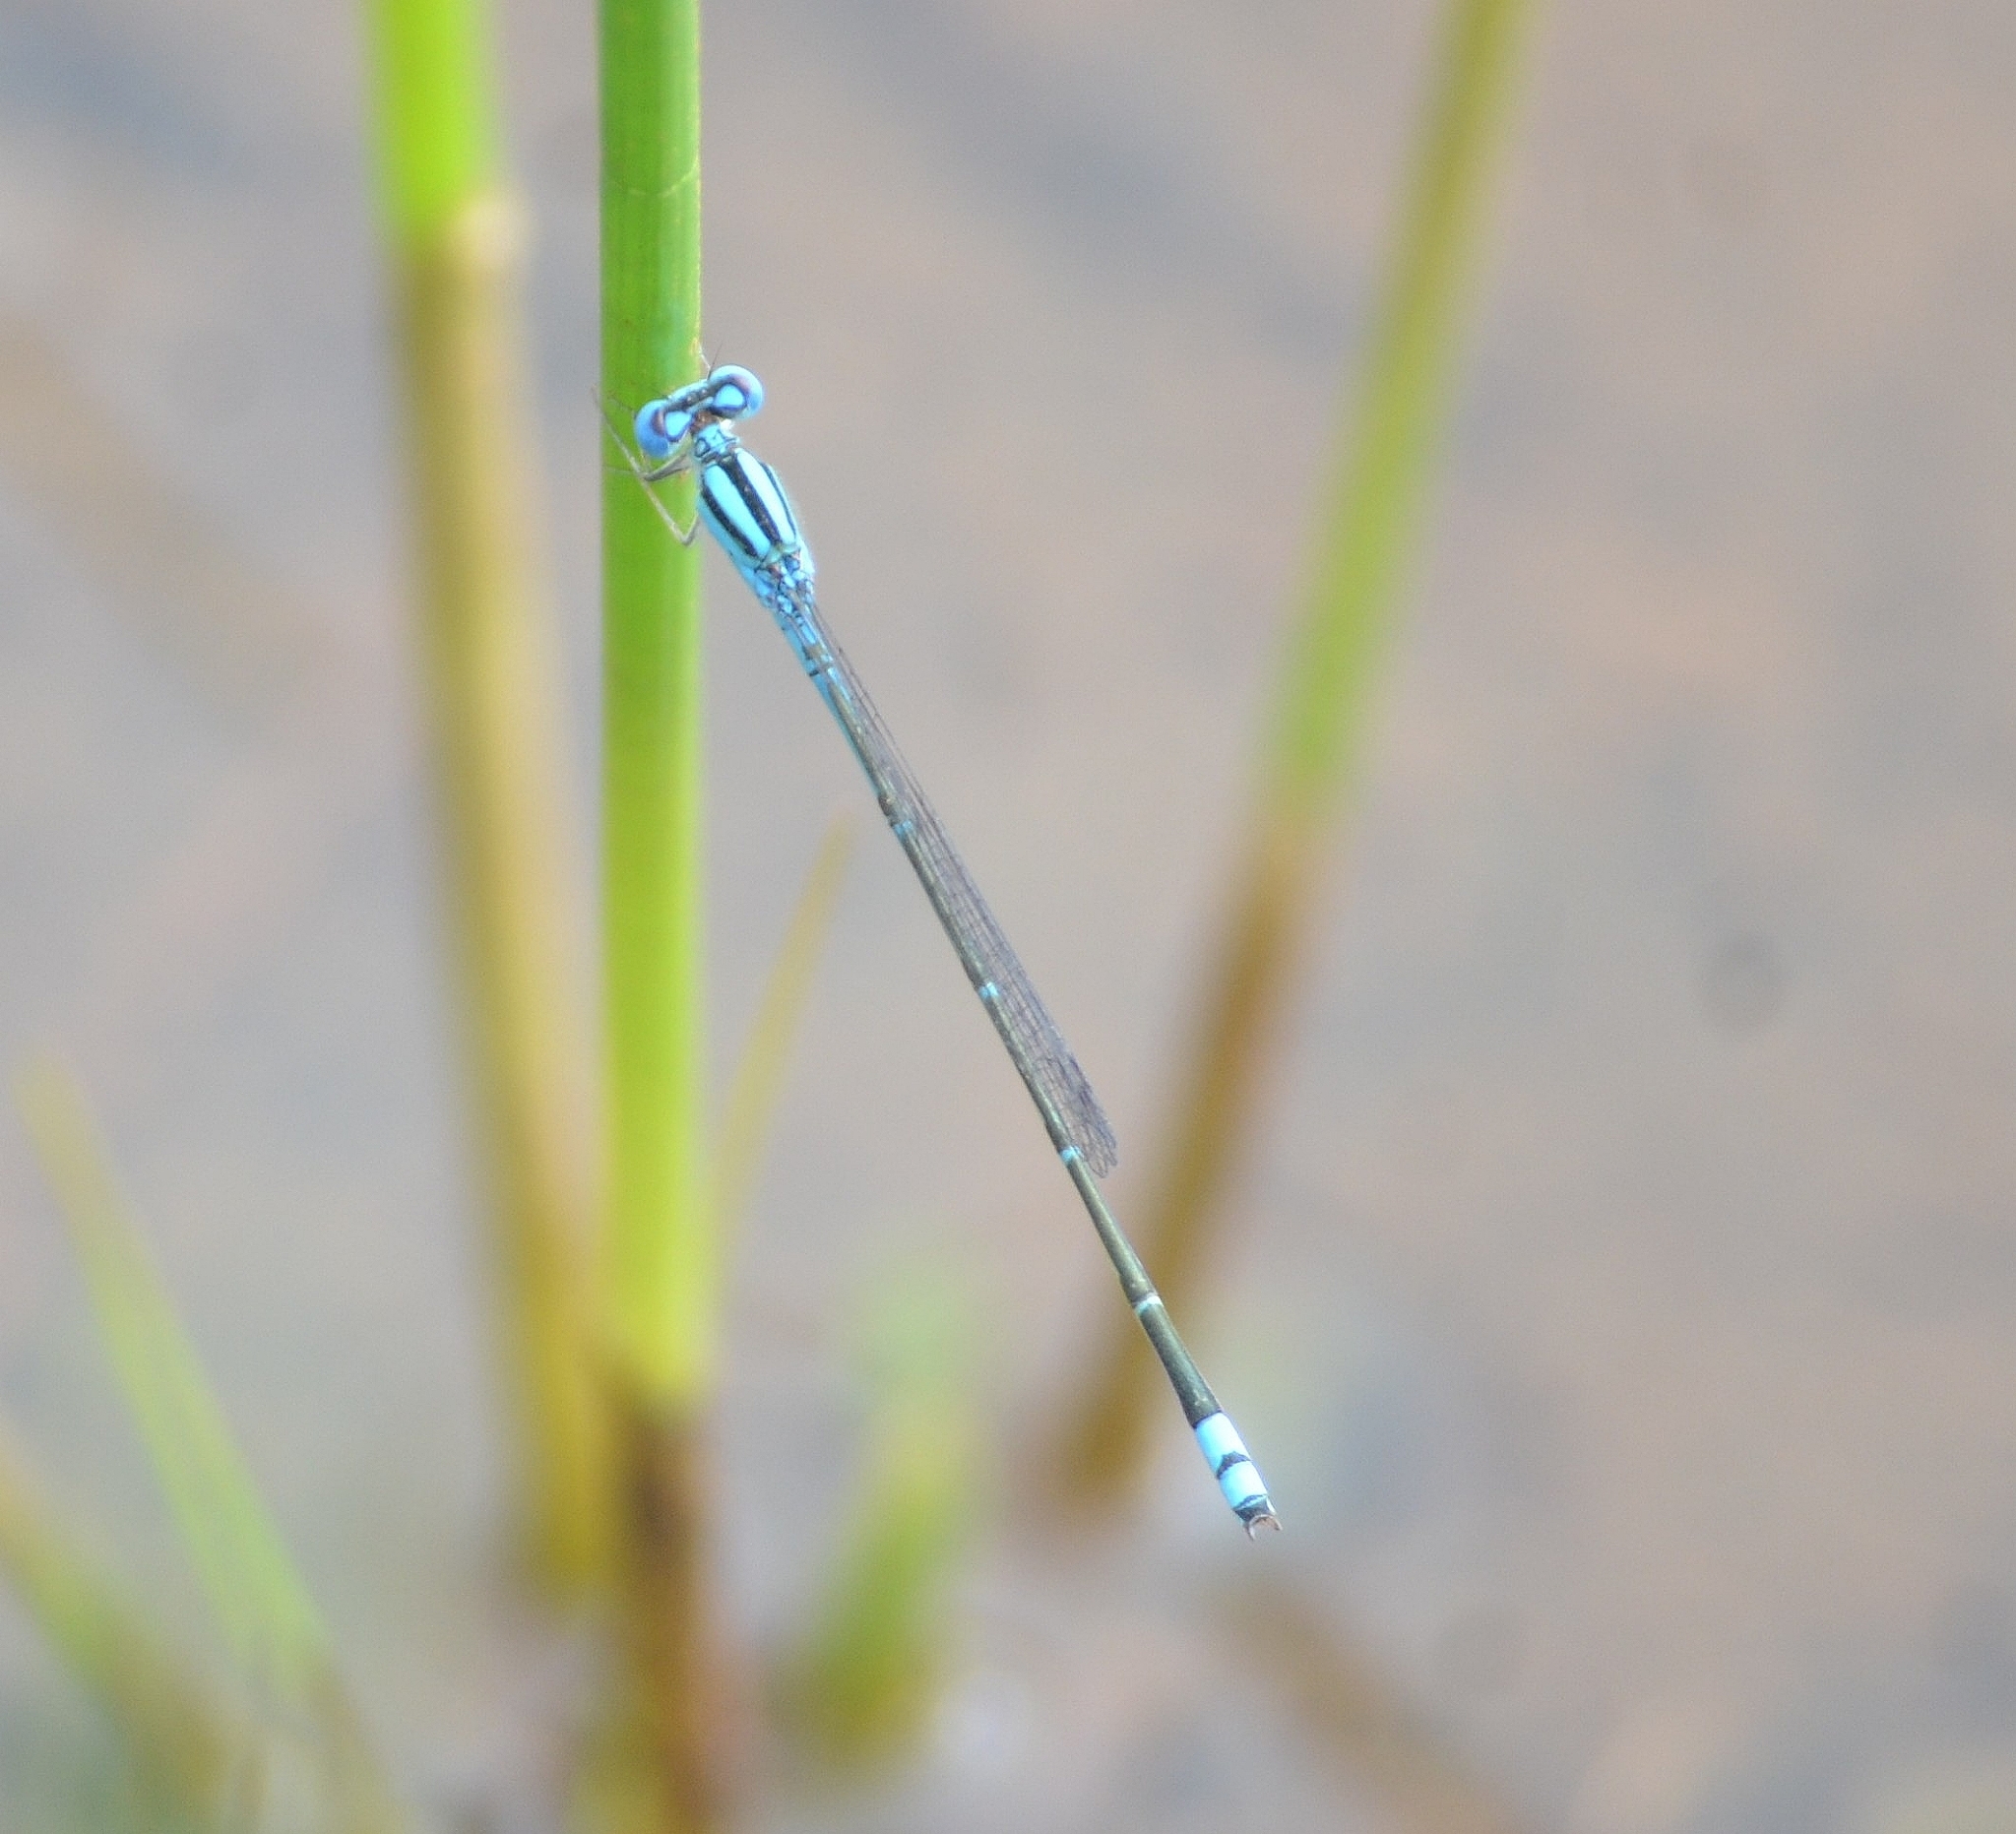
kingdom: Animalia
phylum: Arthropoda
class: Insecta
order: Odonata
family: Coenagrionidae
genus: Pseudagrion
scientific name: Pseudagrion microcephalum
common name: Blue riverdamsel
